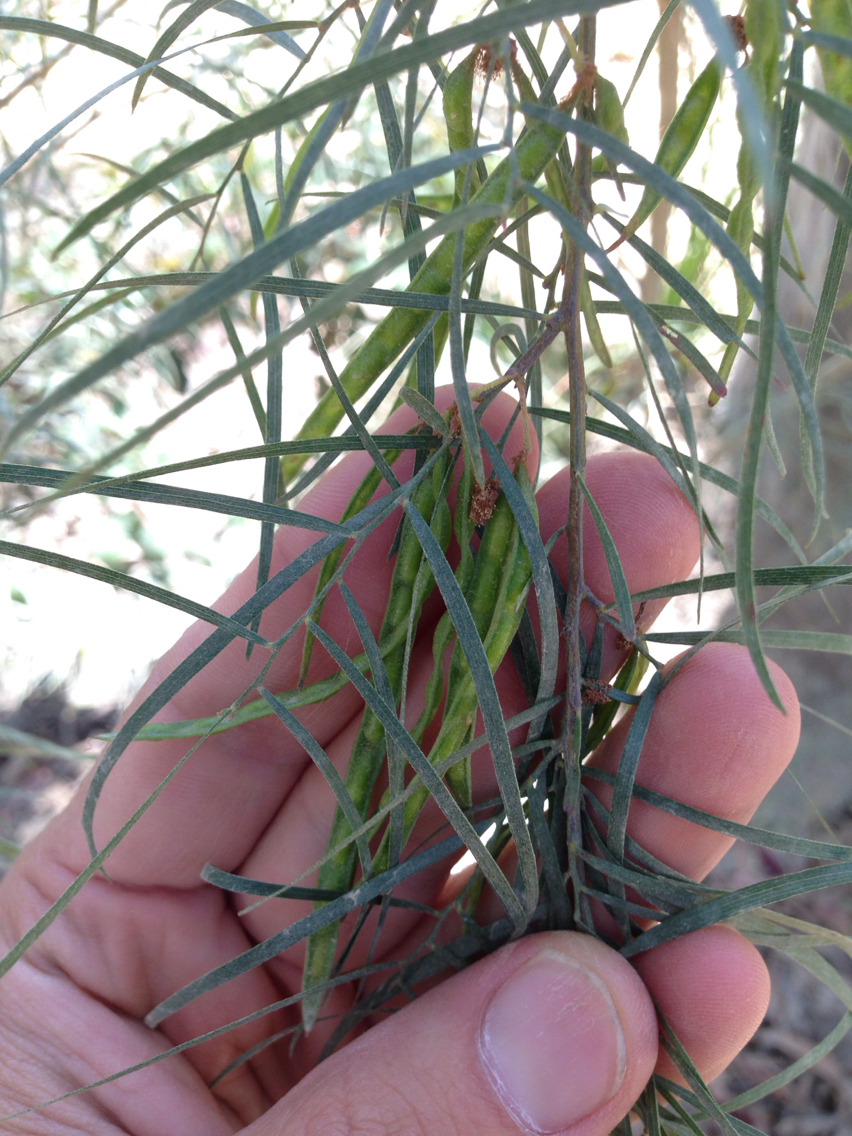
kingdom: Plantae
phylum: Tracheophyta
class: Magnoliopsida
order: Fabales
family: Fabaceae
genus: Acacia
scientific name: Acacia cognata
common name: Narrow-leaf bower wattle
